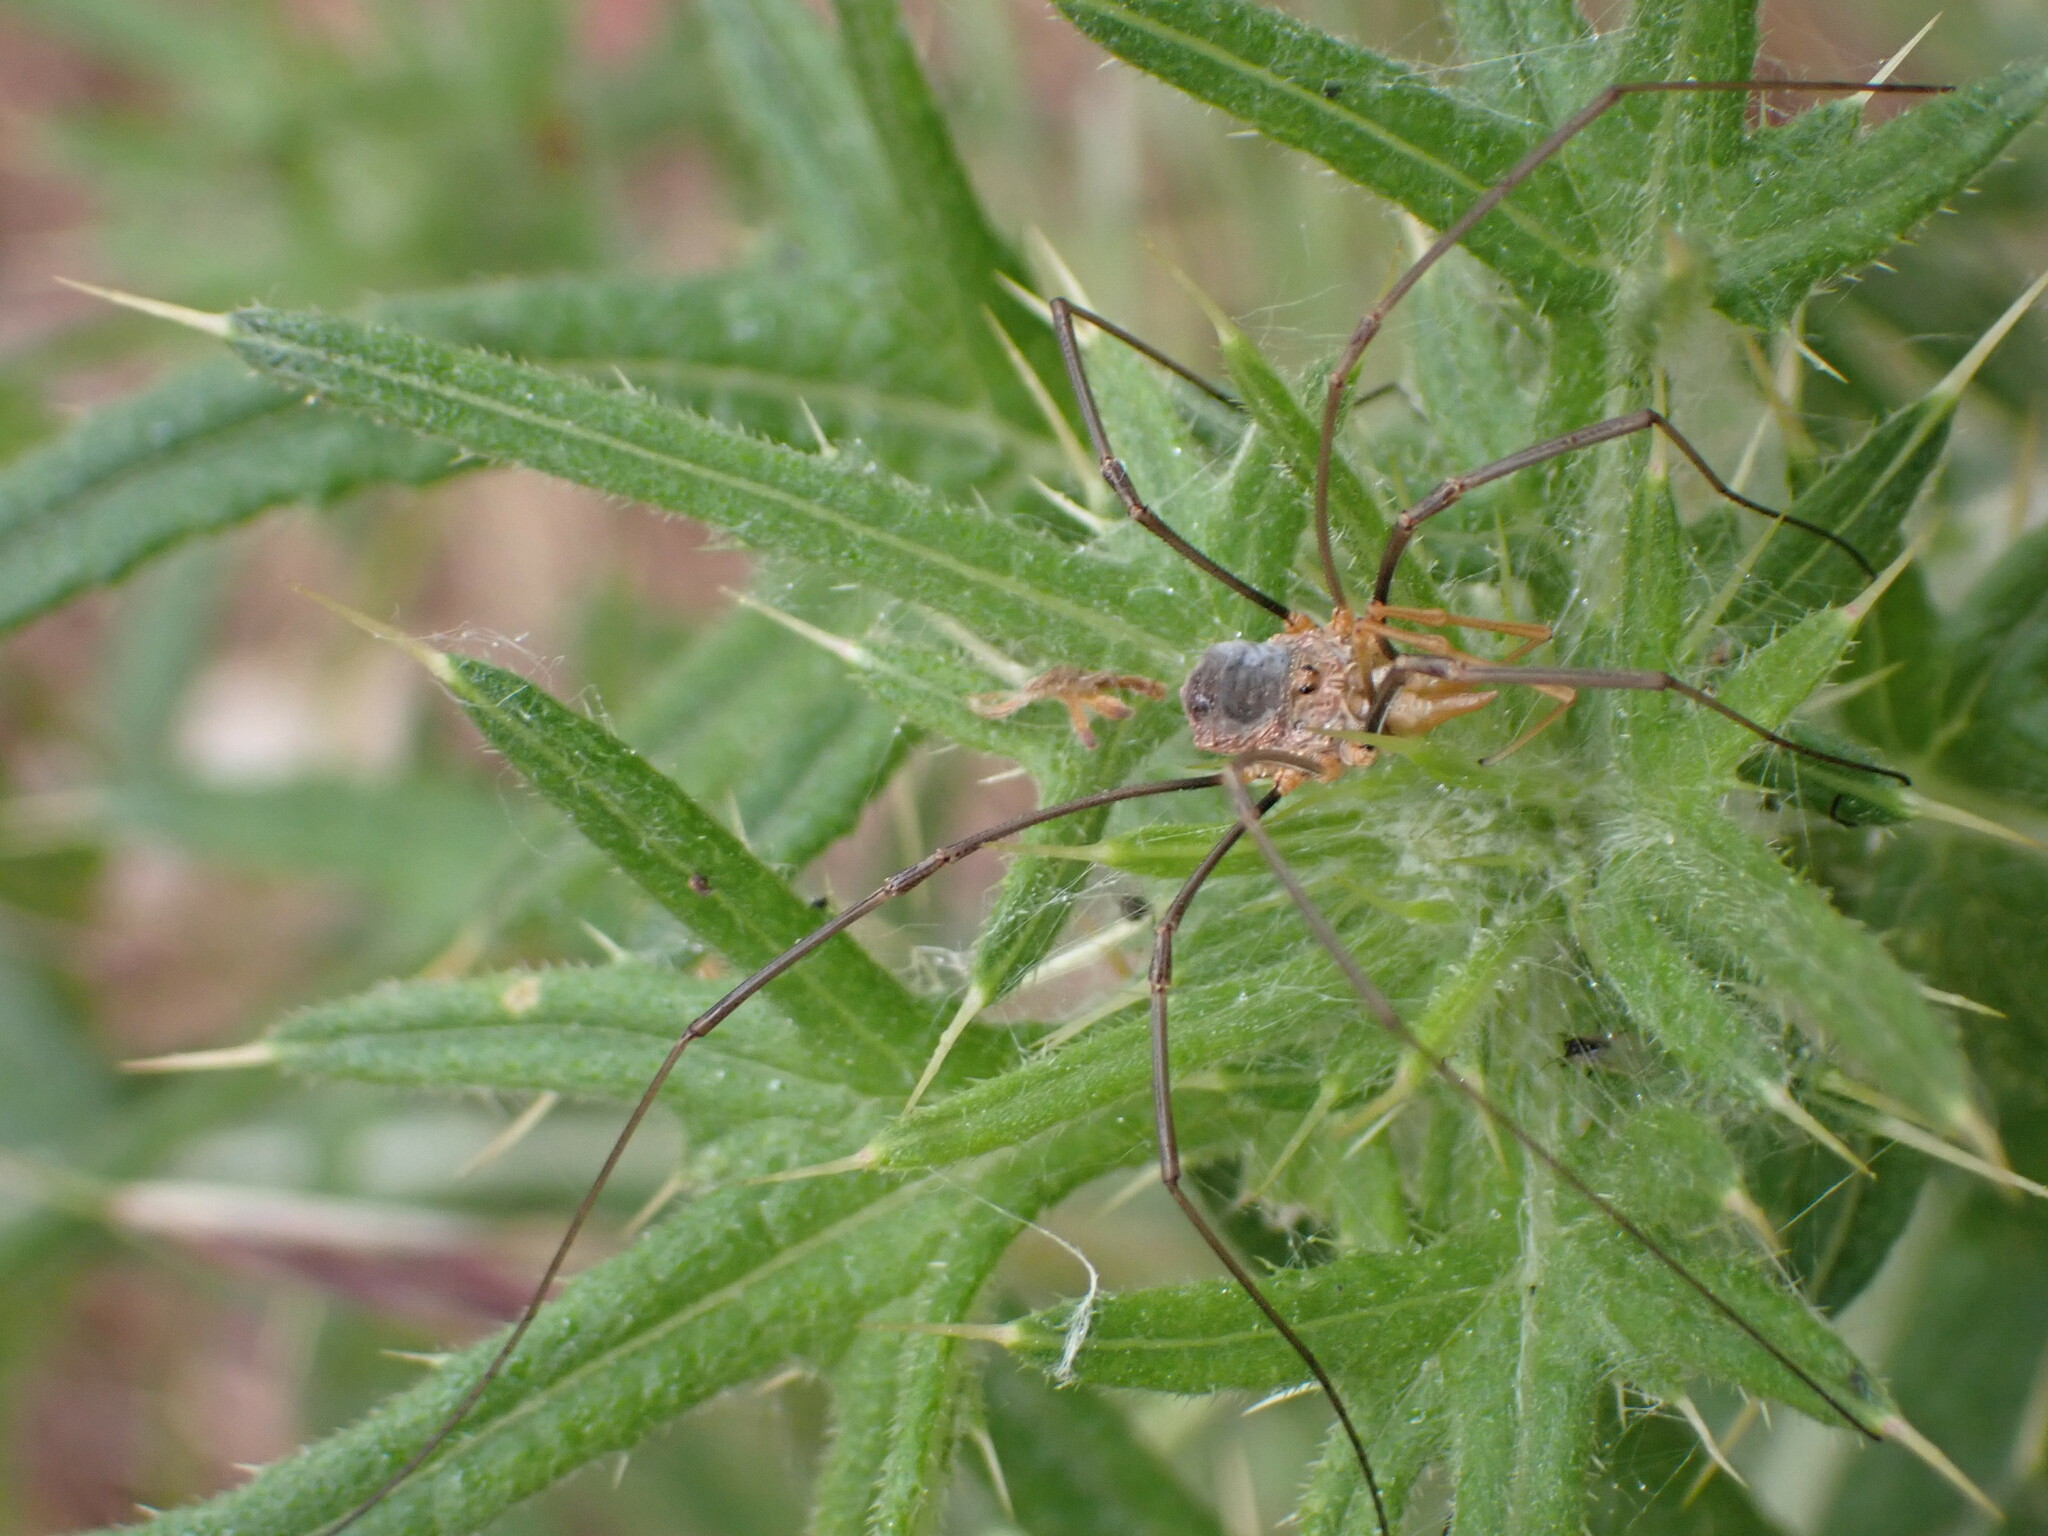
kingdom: Animalia
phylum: Arthropoda
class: Arachnida
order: Opiliones
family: Phalangiidae
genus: Phalangium
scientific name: Phalangium opilio
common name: Daddy longleg
